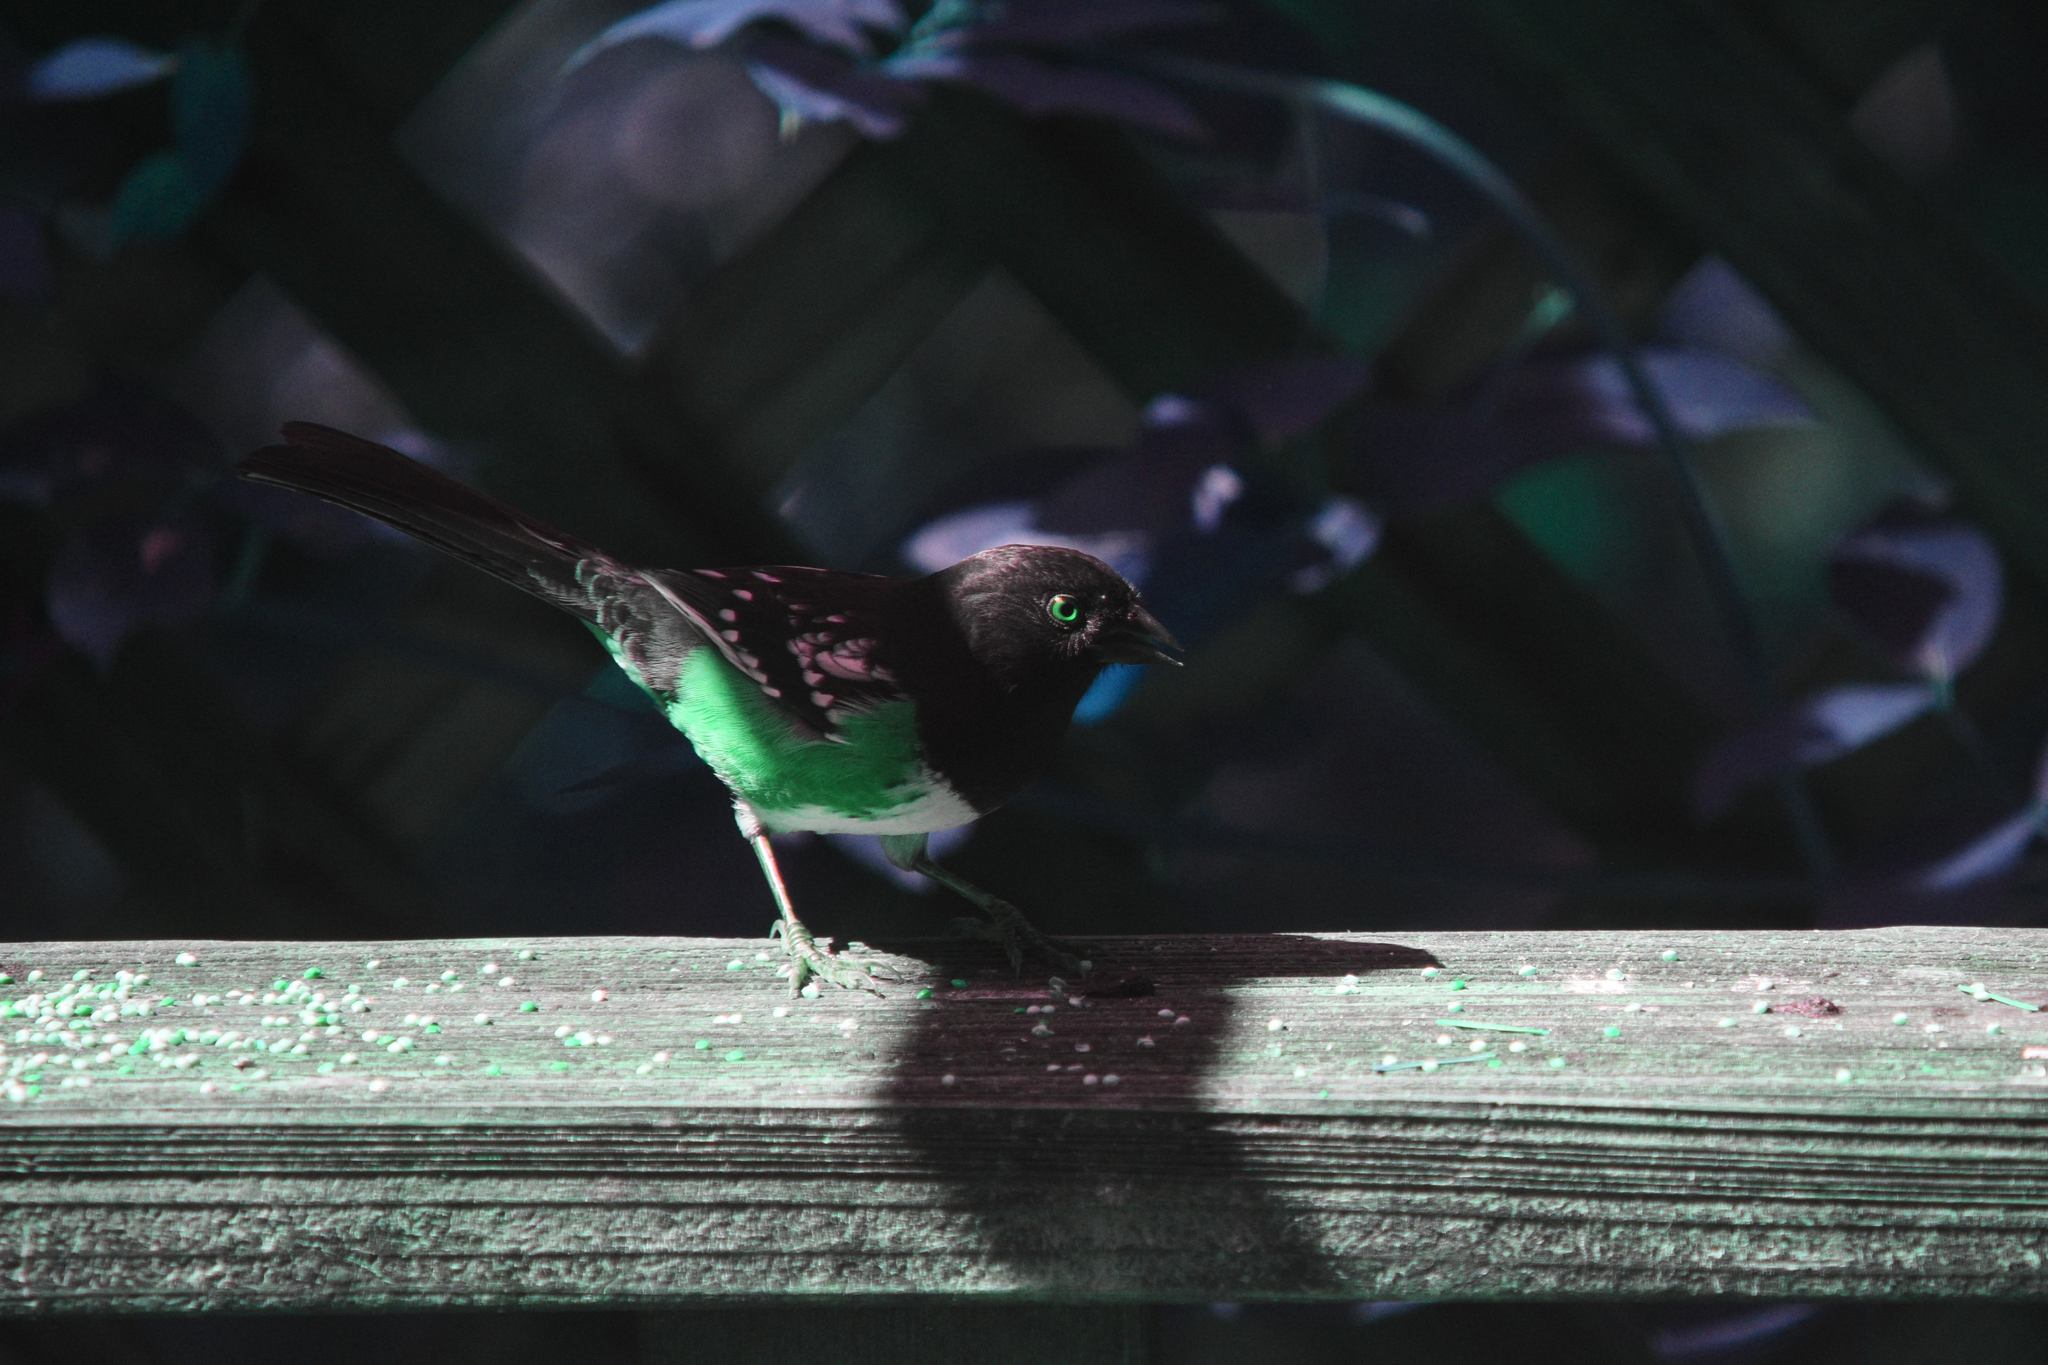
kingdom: Animalia
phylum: Chordata
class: Aves
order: Passeriformes
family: Passerellidae
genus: Pipilo
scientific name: Pipilo maculatus
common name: Spotted towhee
